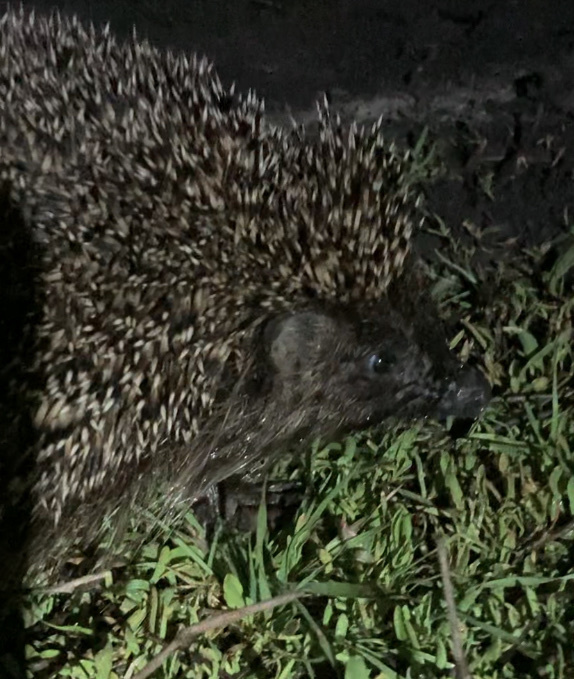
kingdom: Animalia
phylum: Chordata
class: Mammalia
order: Erinaceomorpha
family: Erinaceidae
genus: Erinaceus
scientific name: Erinaceus roumanicus
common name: Northern white-breasted hedgehog
